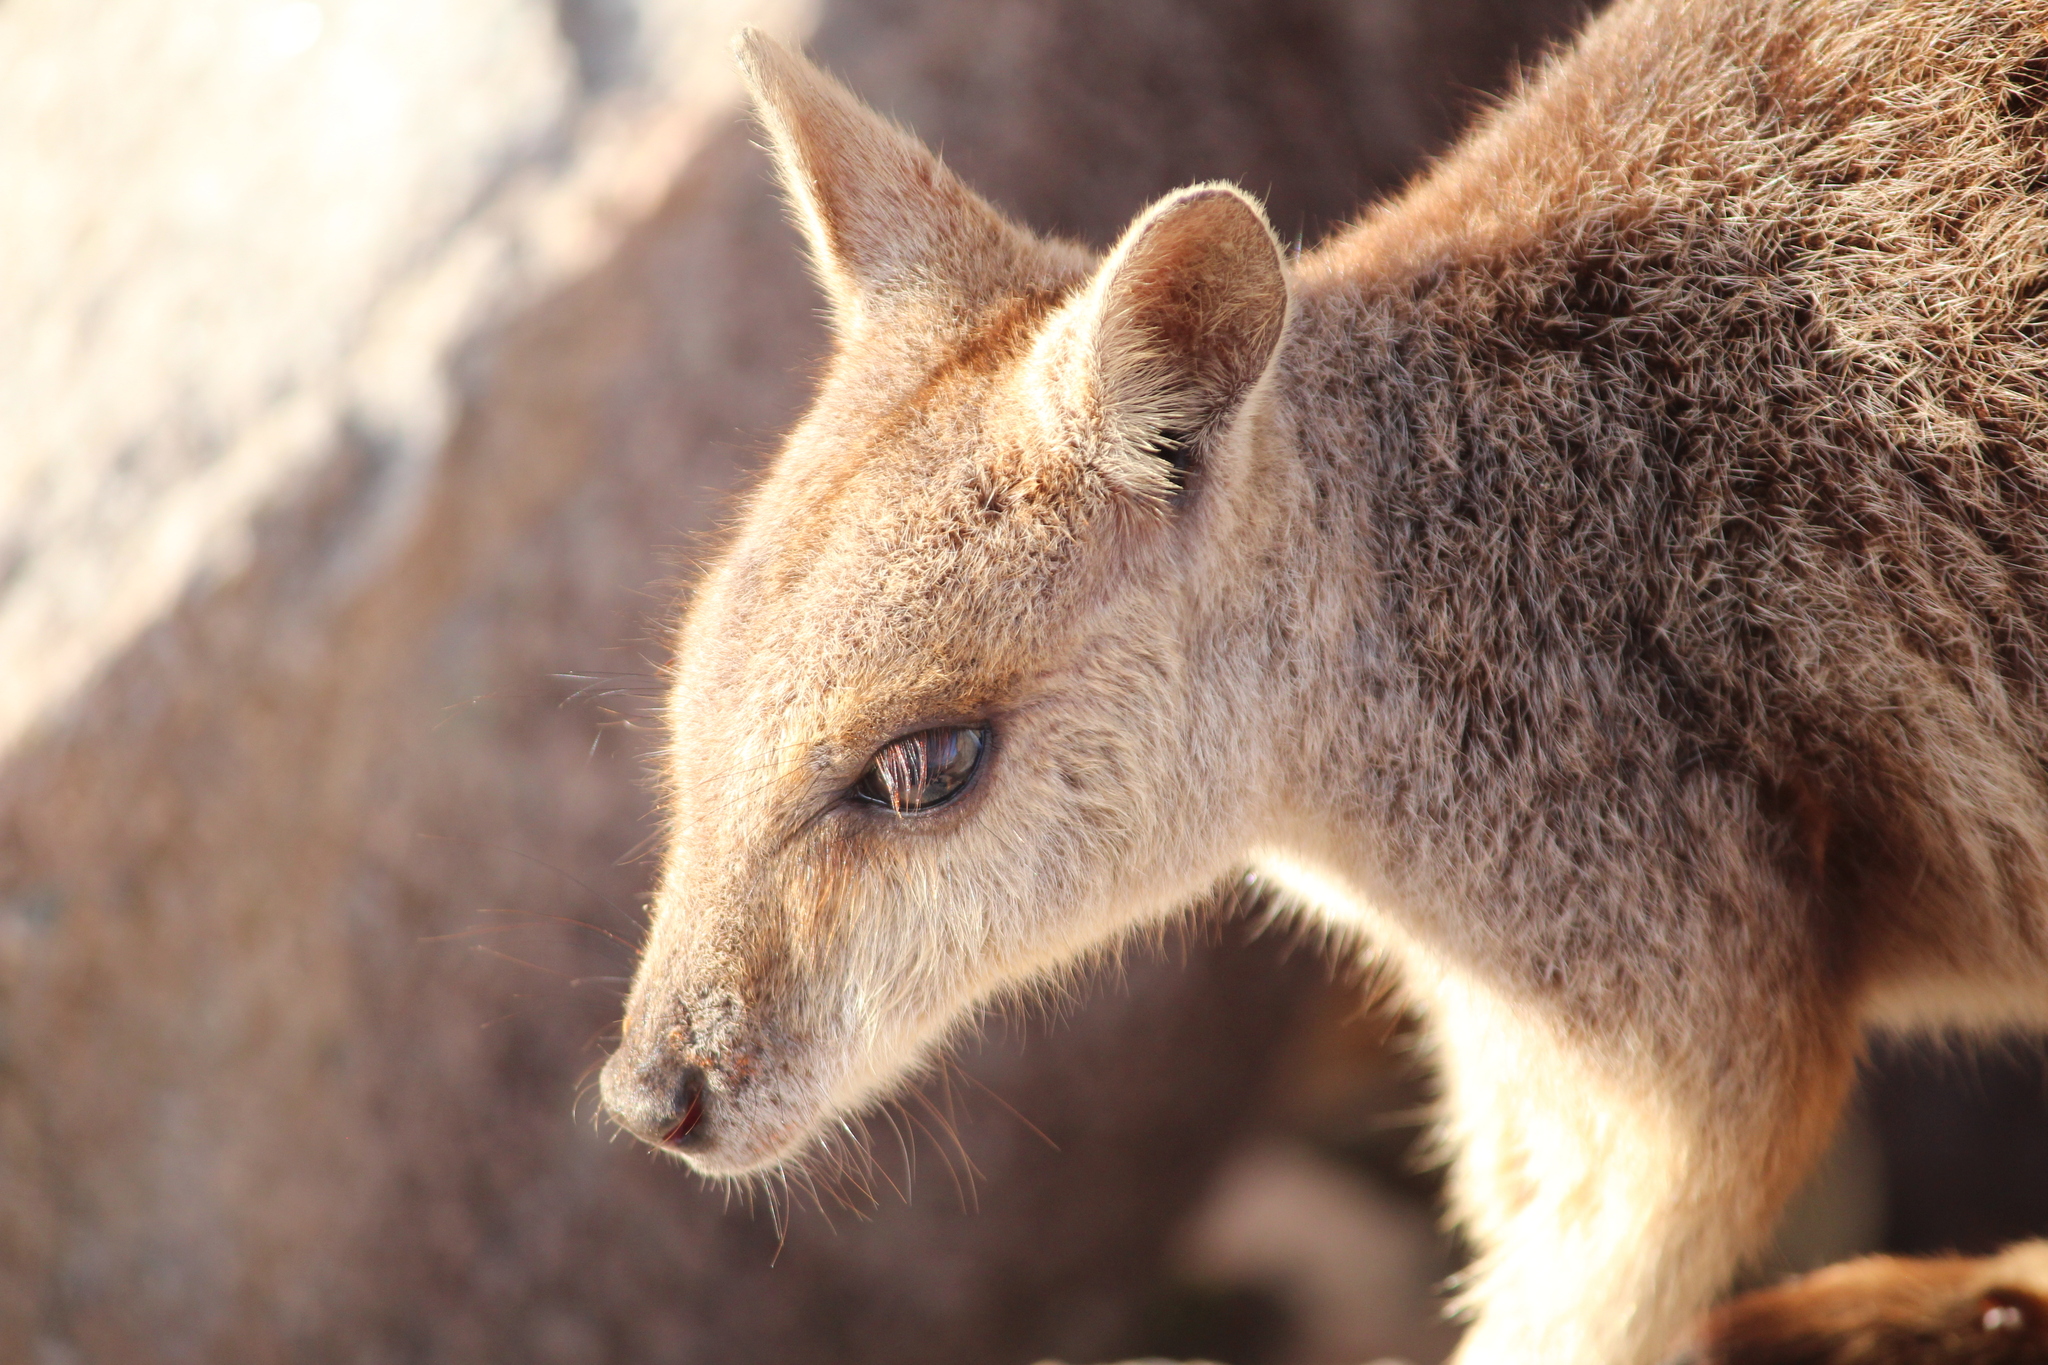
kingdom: Animalia
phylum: Chordata
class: Mammalia
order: Diprotodontia
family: Macropodidae
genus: Petrogale
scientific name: Petrogale assimilis
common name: Allied rock wallaby
